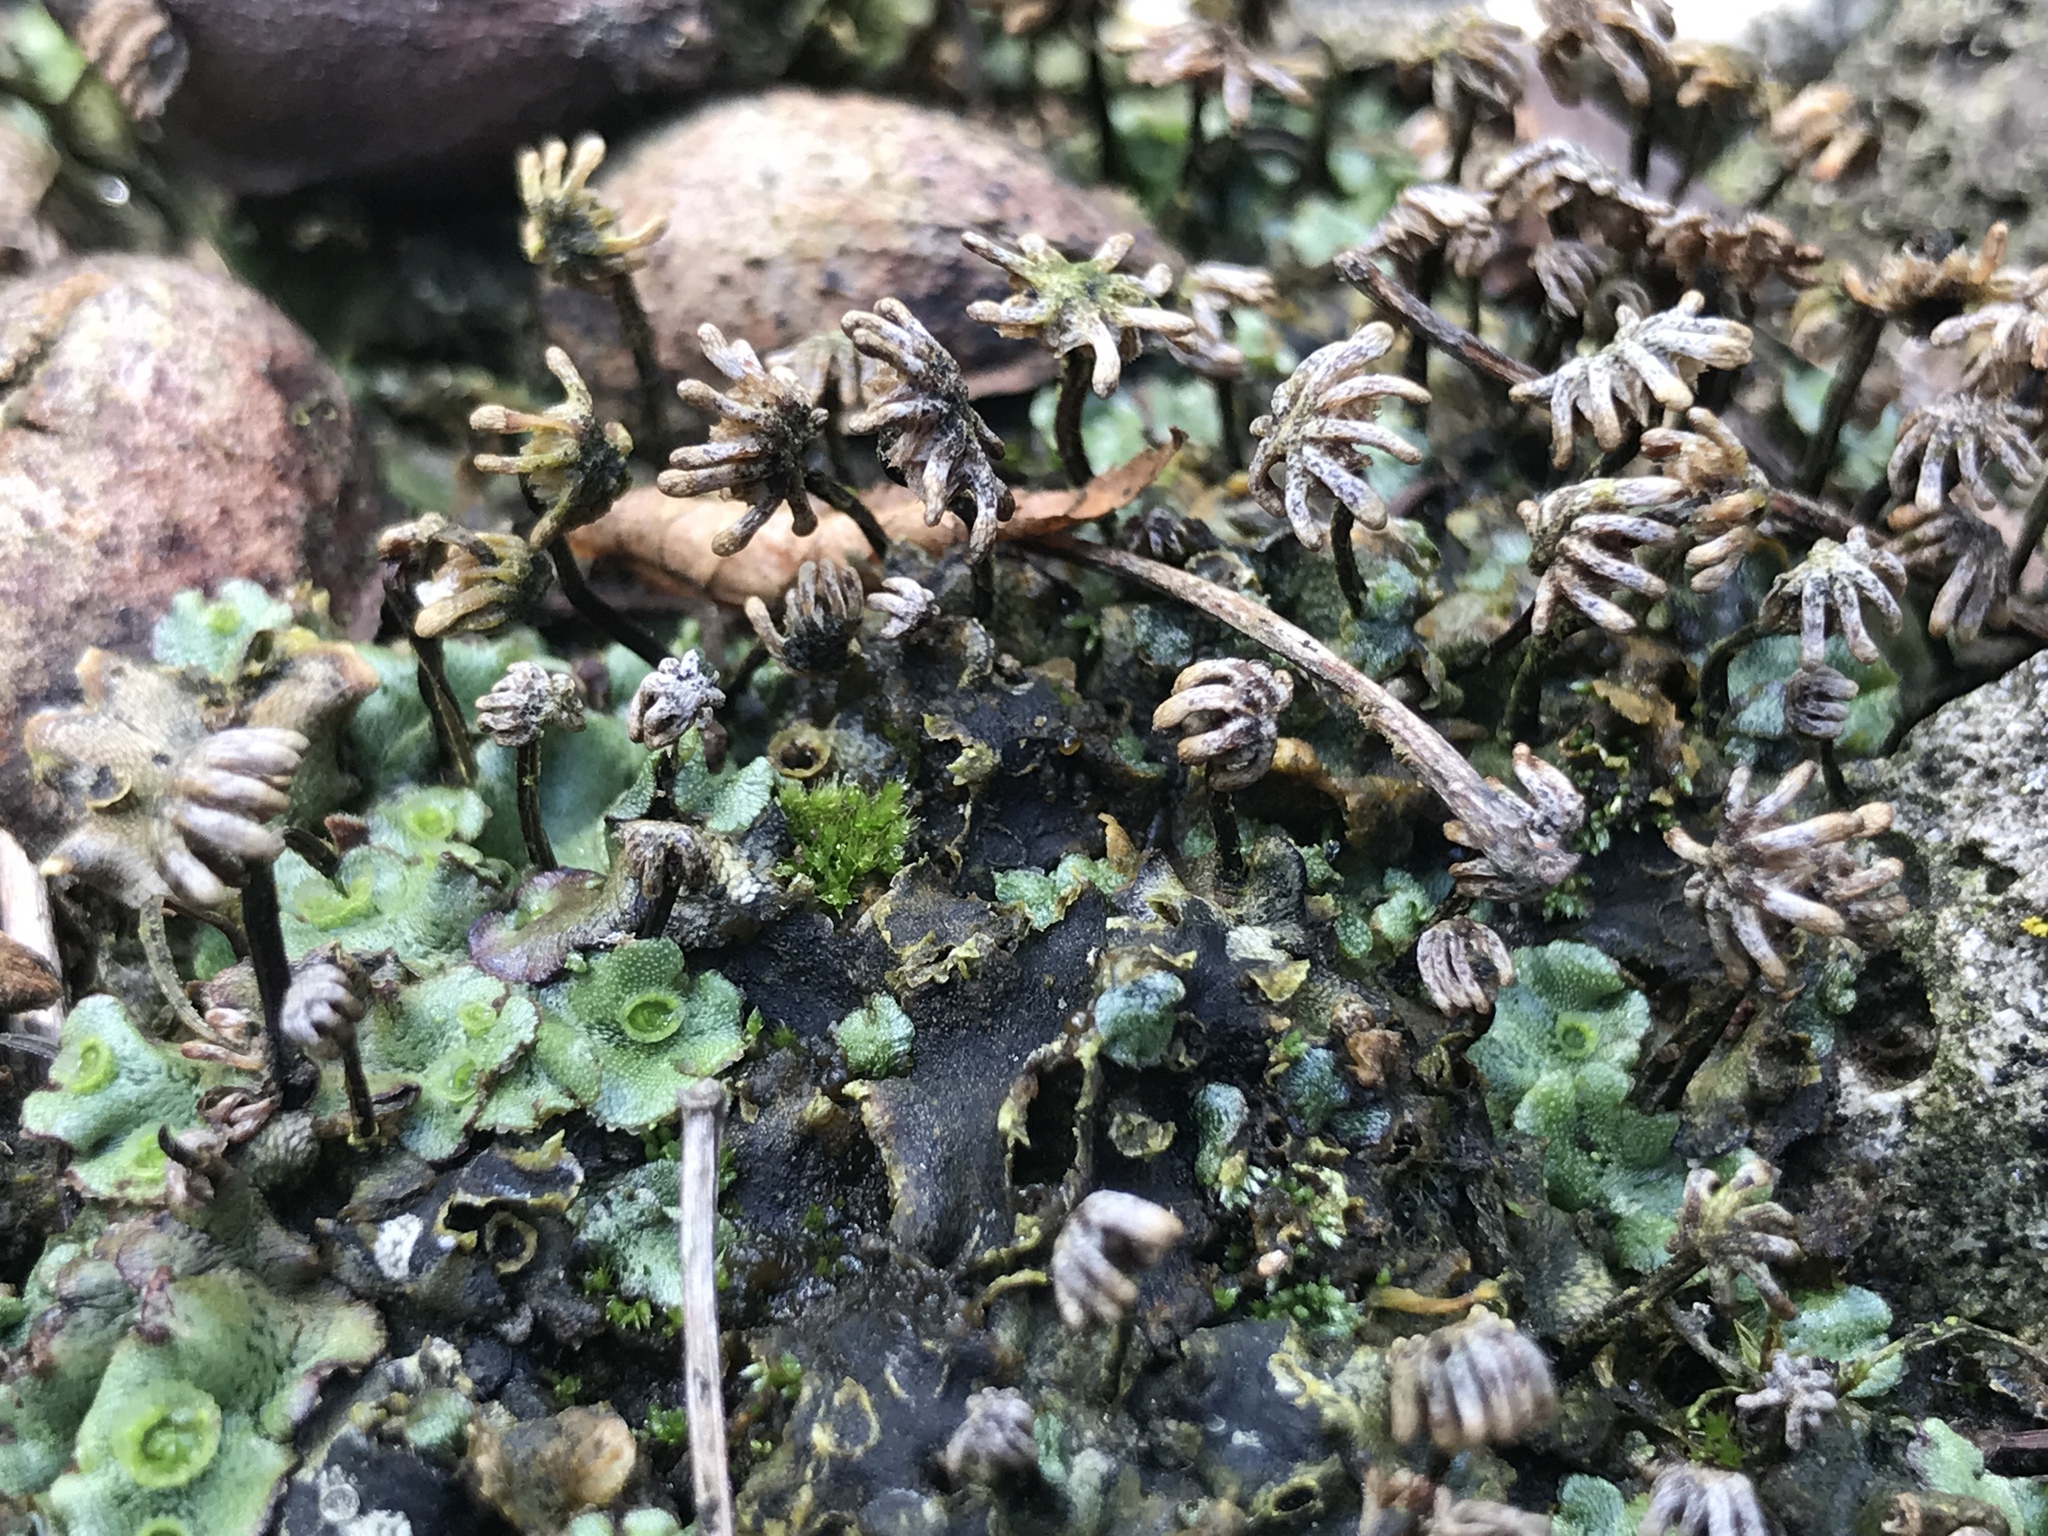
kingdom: Plantae
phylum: Marchantiophyta
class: Marchantiopsida
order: Marchantiales
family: Marchantiaceae
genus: Marchantia
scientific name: Marchantia polymorpha
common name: Common liverwort
